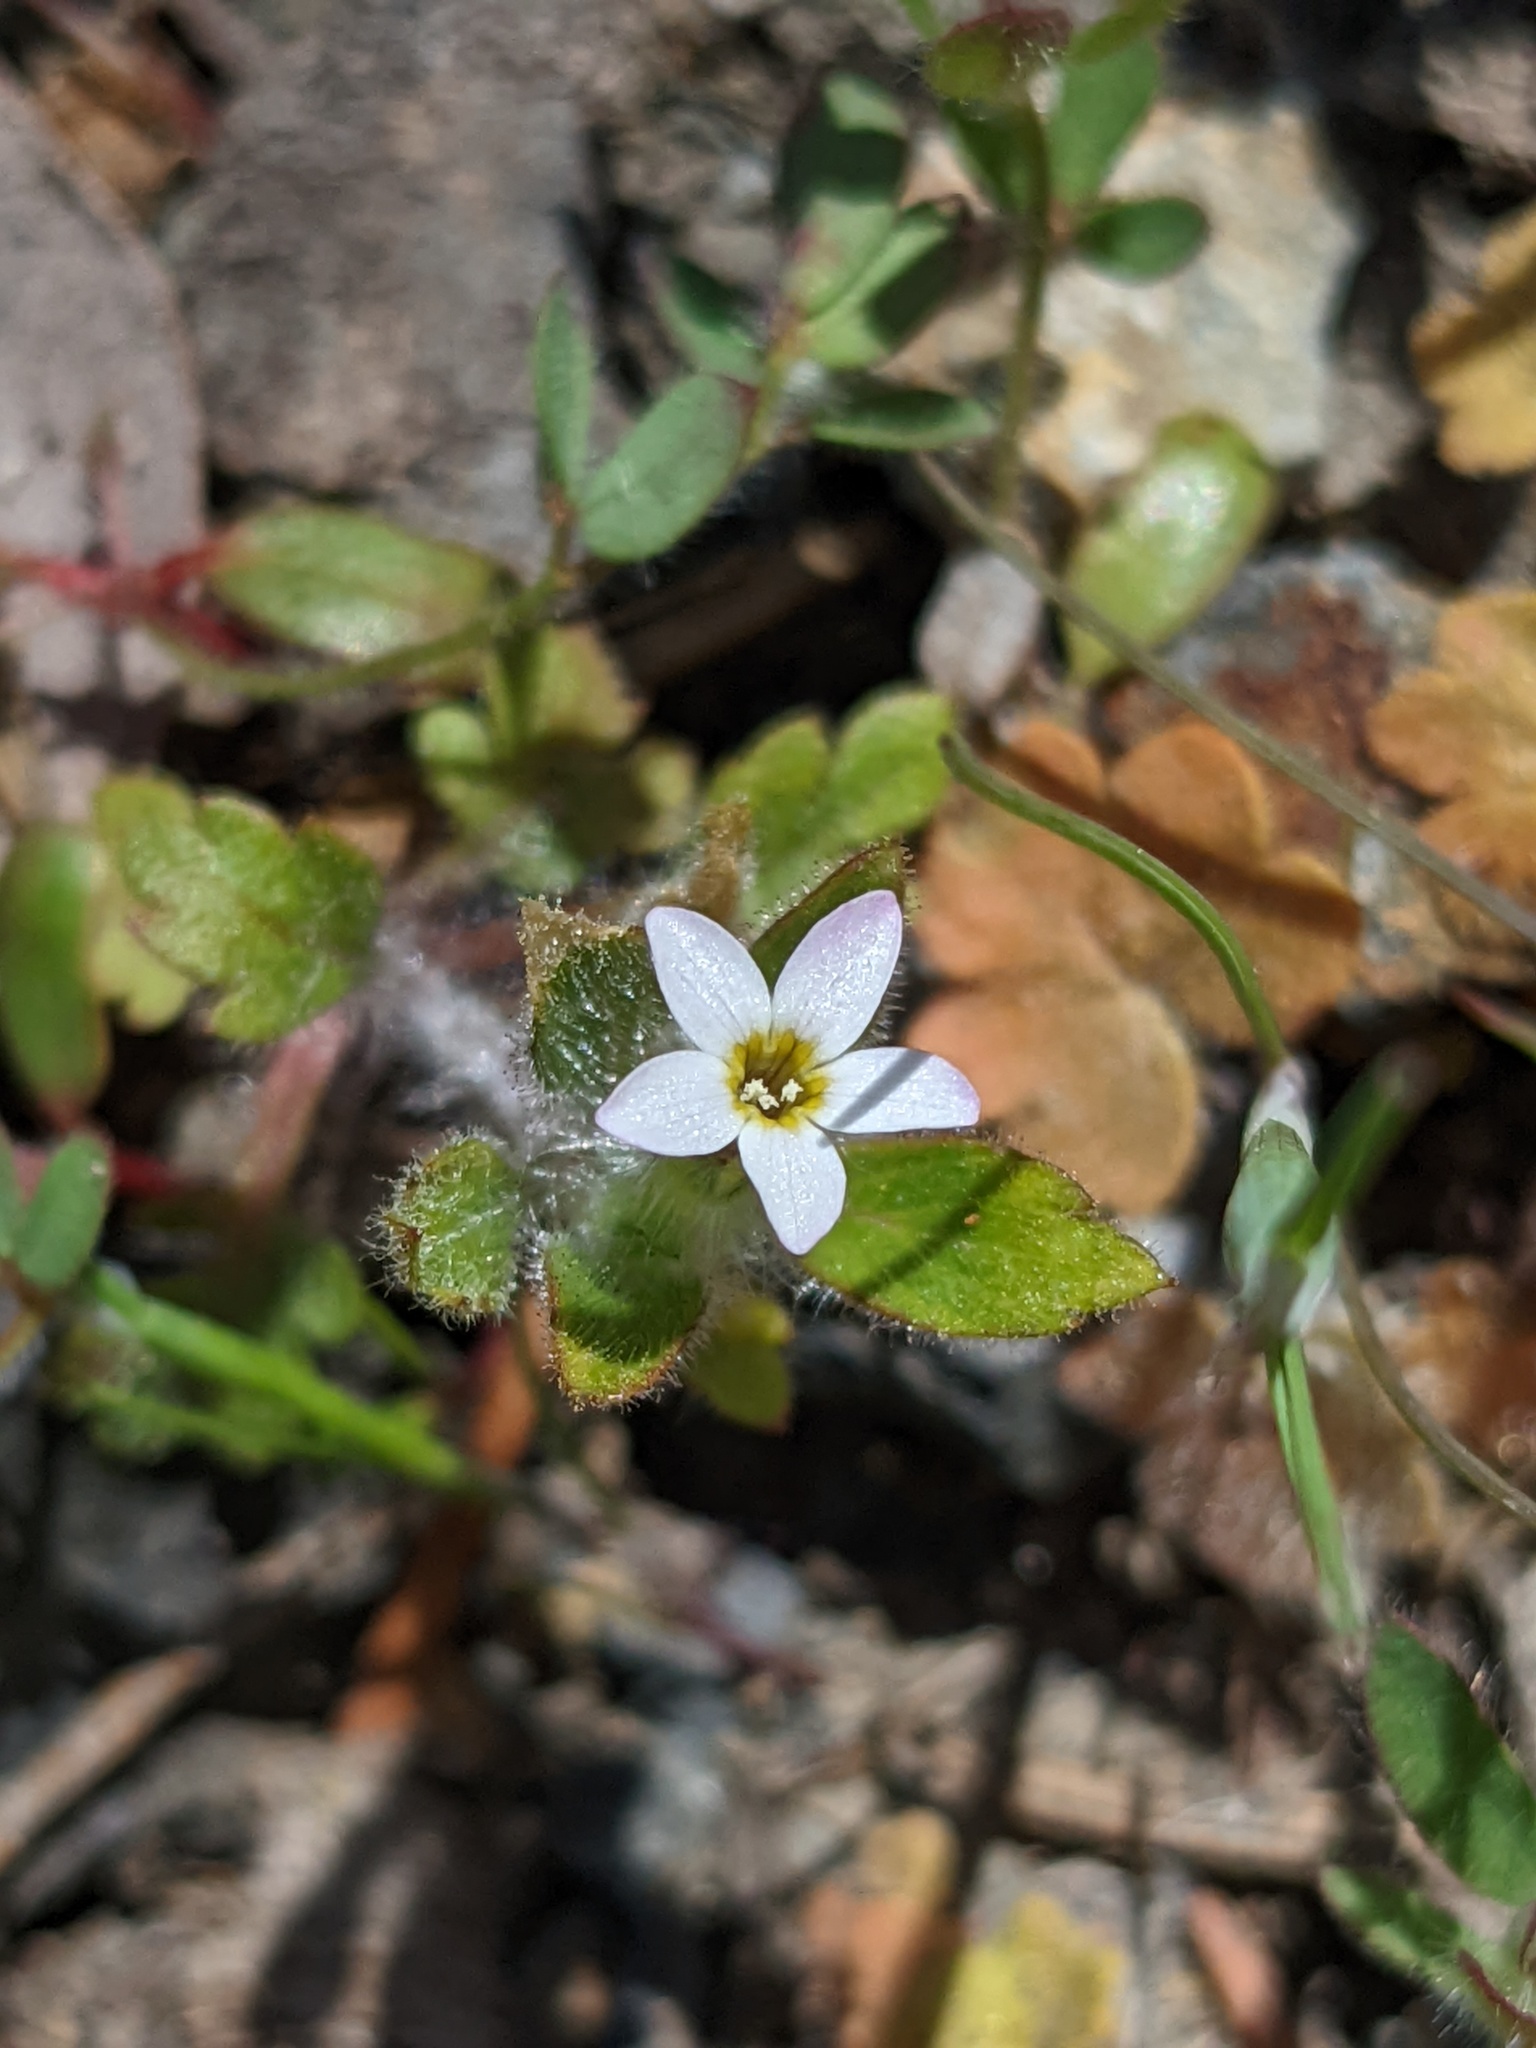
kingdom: Plantae
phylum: Tracheophyta
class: Magnoliopsida
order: Ericales
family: Polemoniaceae
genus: Collomia
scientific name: Collomia heterophylla
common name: Variable-leaved collomia
